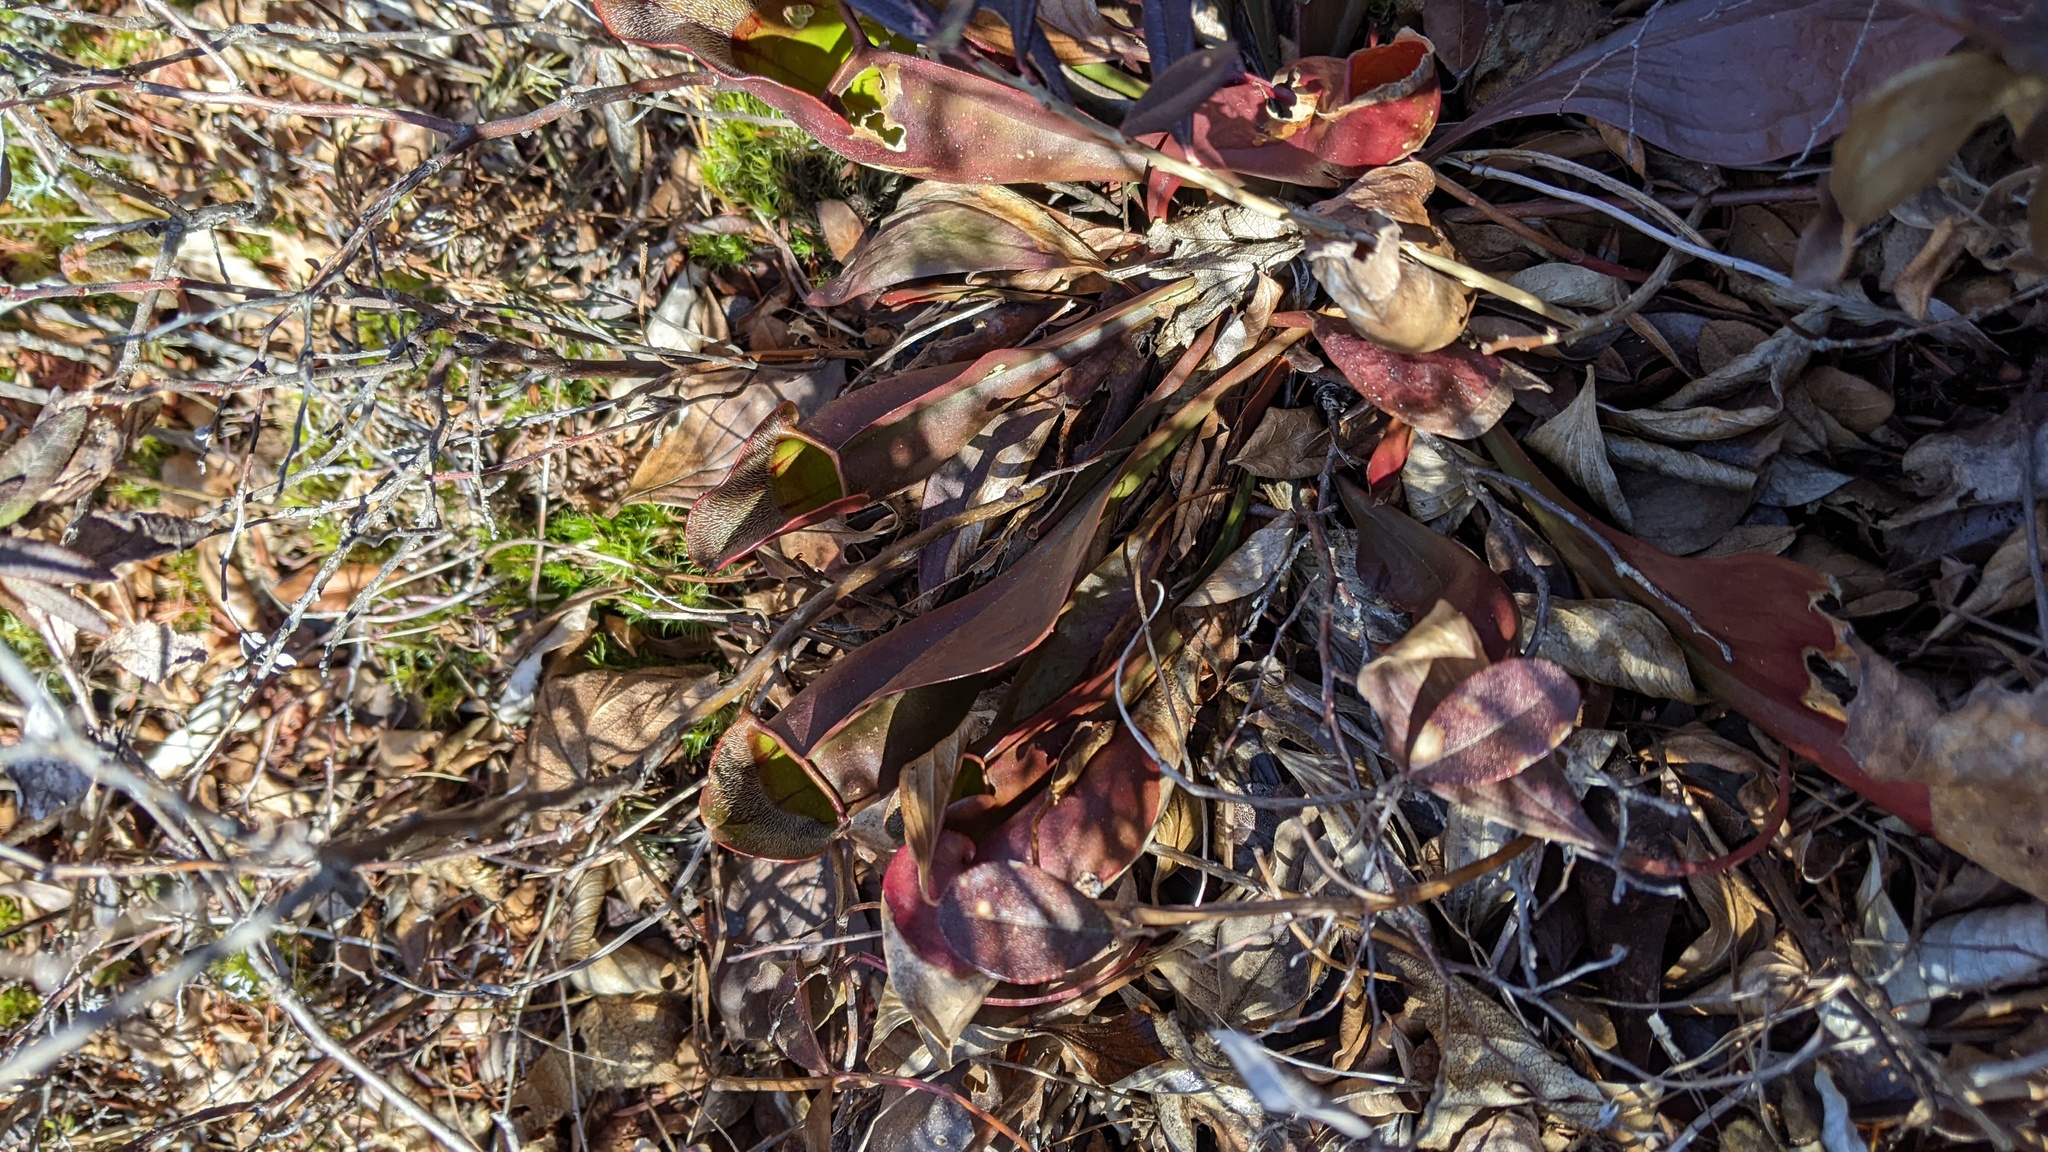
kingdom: Plantae
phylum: Tracheophyta
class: Magnoliopsida
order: Ericales
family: Sarraceniaceae
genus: Sarracenia
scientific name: Sarracenia purpurea
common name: Pitcherplant
